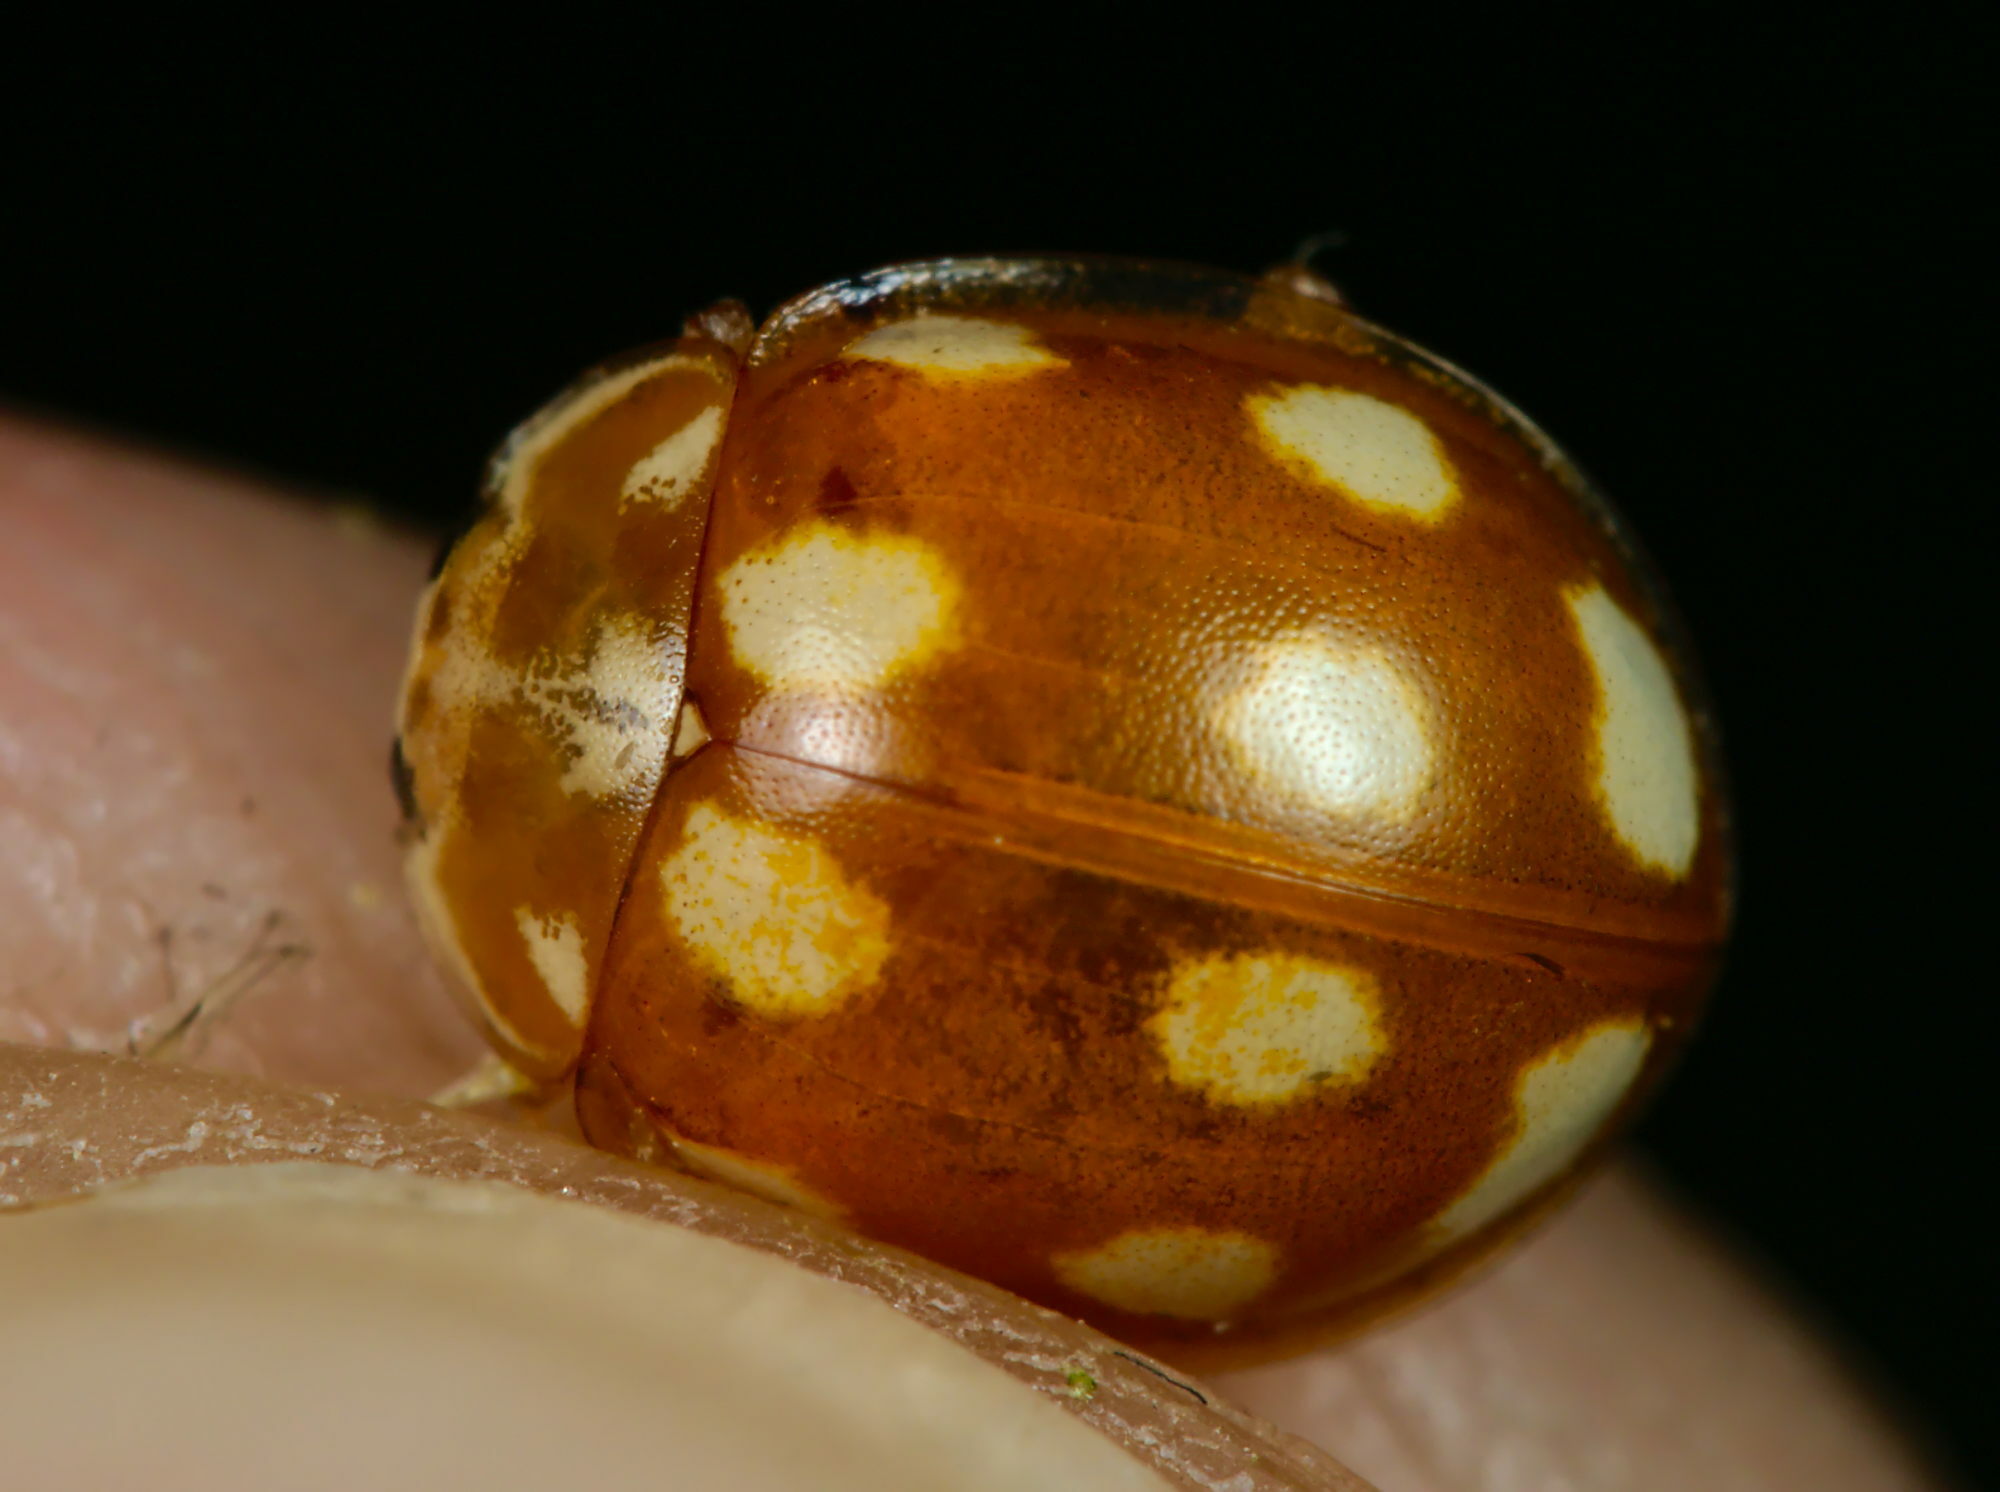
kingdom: Animalia
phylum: Arthropoda
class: Insecta
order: Coleoptera
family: Coccinellidae
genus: Calvia
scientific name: Calvia decemguttata
